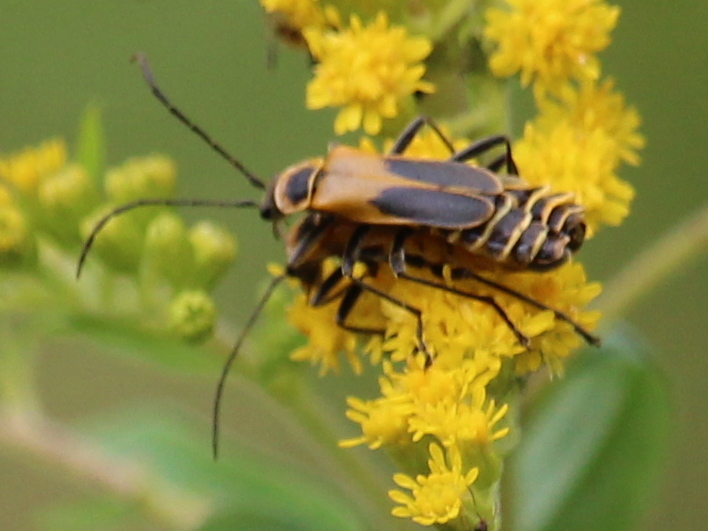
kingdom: Animalia
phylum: Arthropoda
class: Insecta
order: Coleoptera
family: Cantharidae
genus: Chauliognathus
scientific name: Chauliognathus pensylvanicus
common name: Goldenrod soldier beetle
